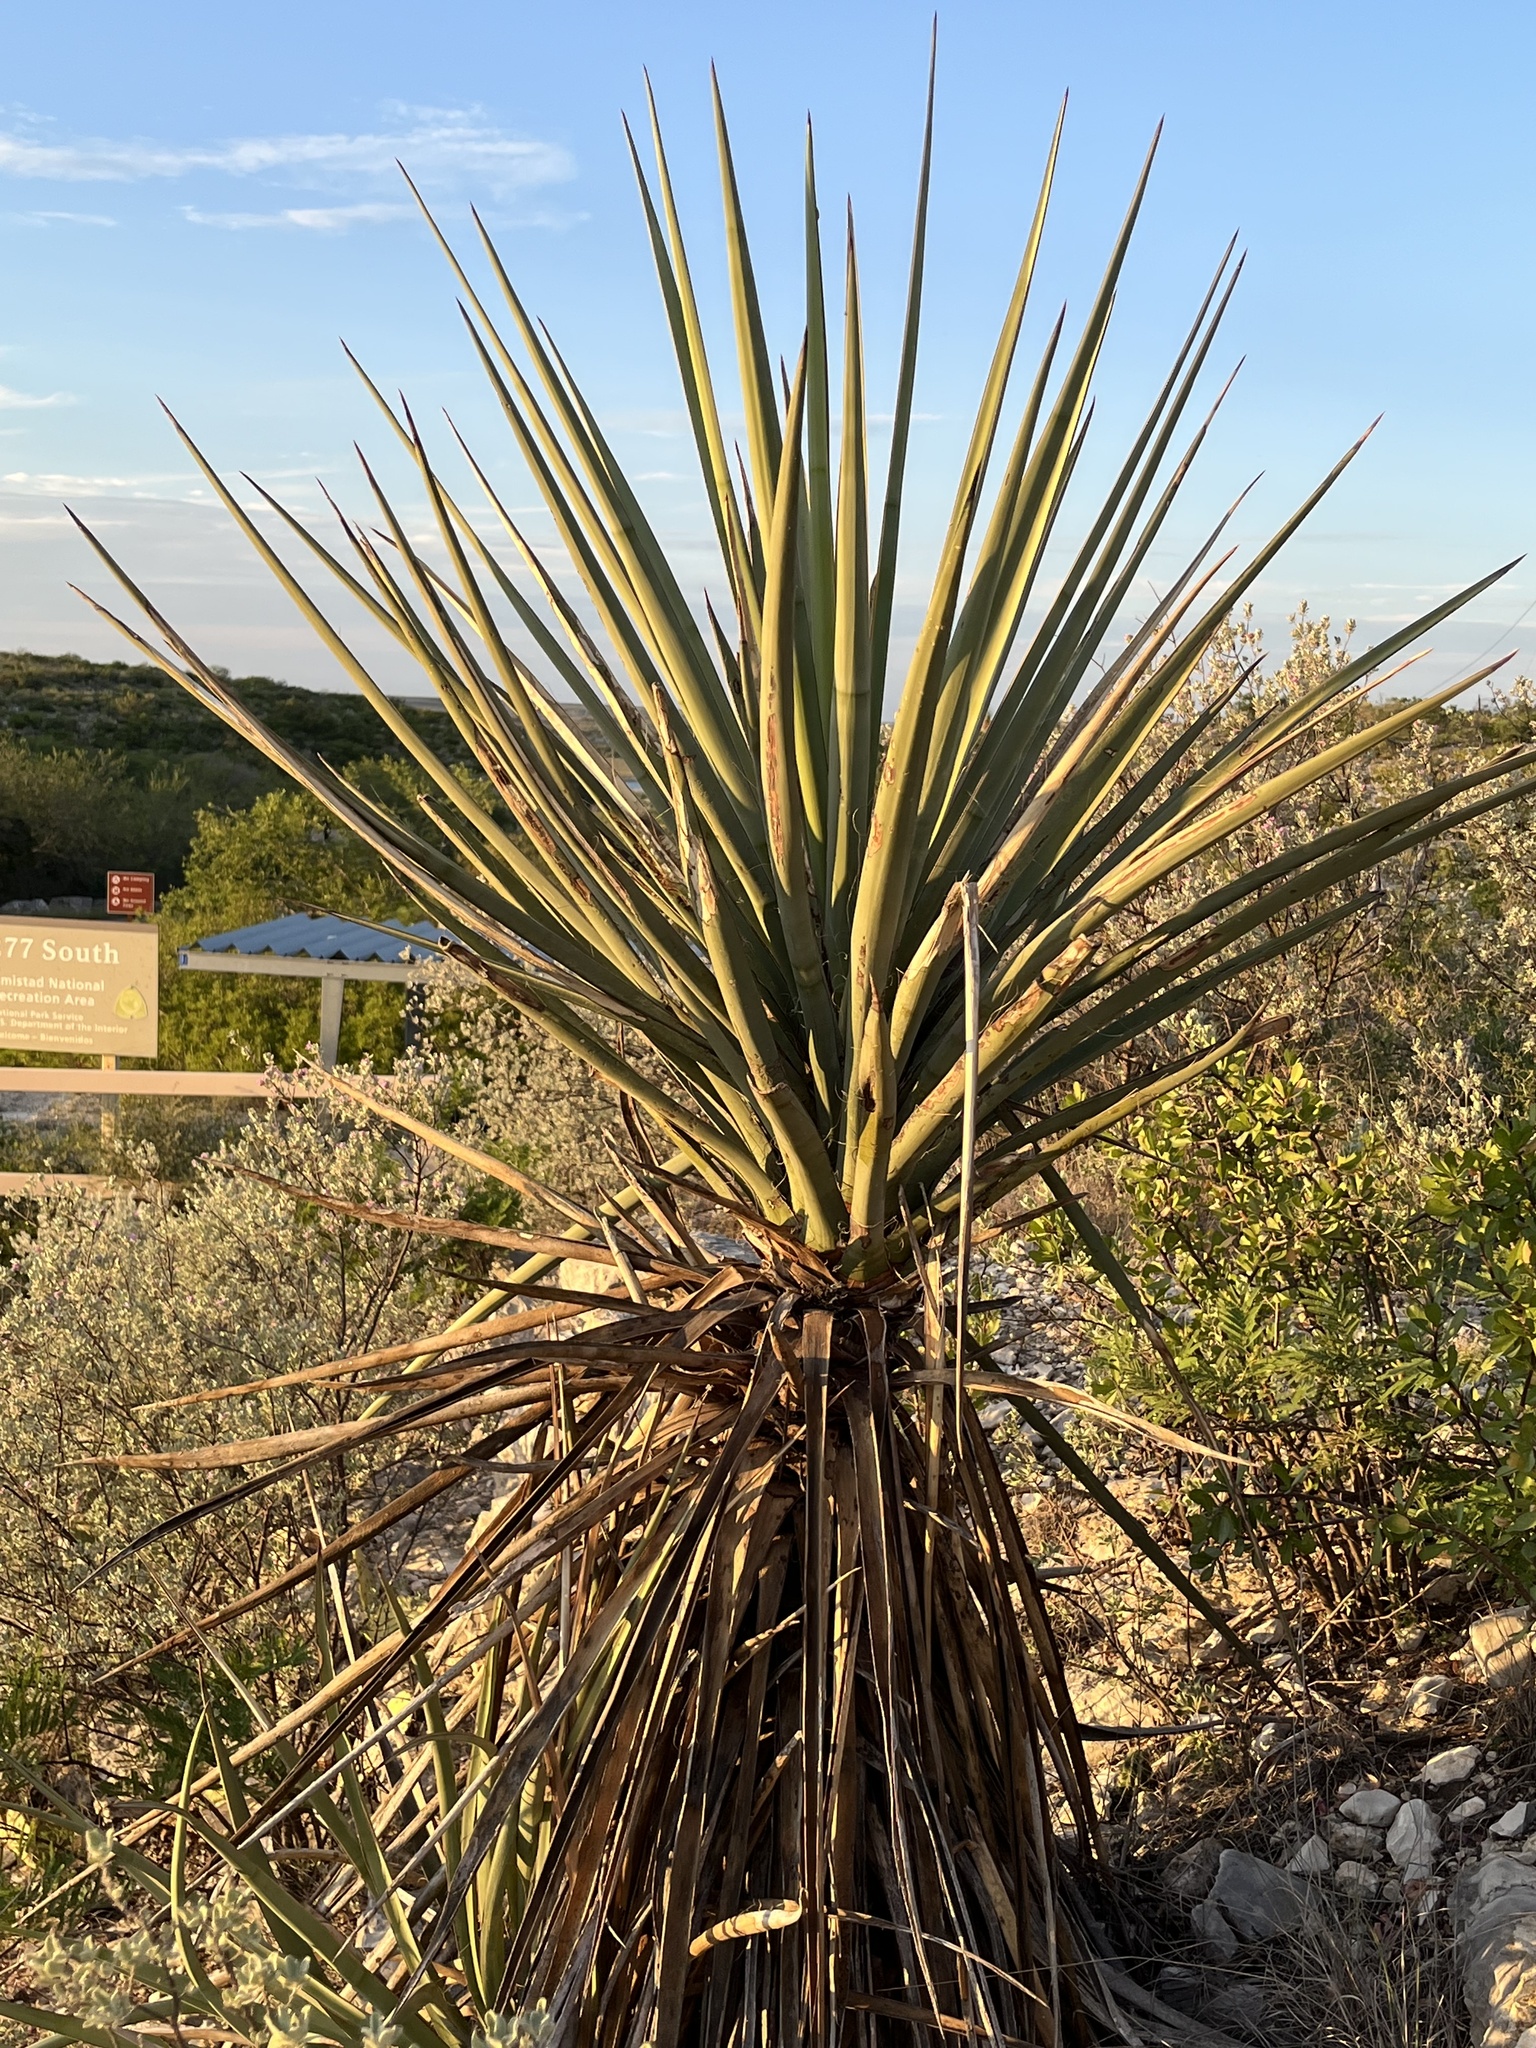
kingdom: Plantae
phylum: Tracheophyta
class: Liliopsida
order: Asparagales
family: Asparagaceae
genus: Yucca
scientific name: Yucca treculiana
